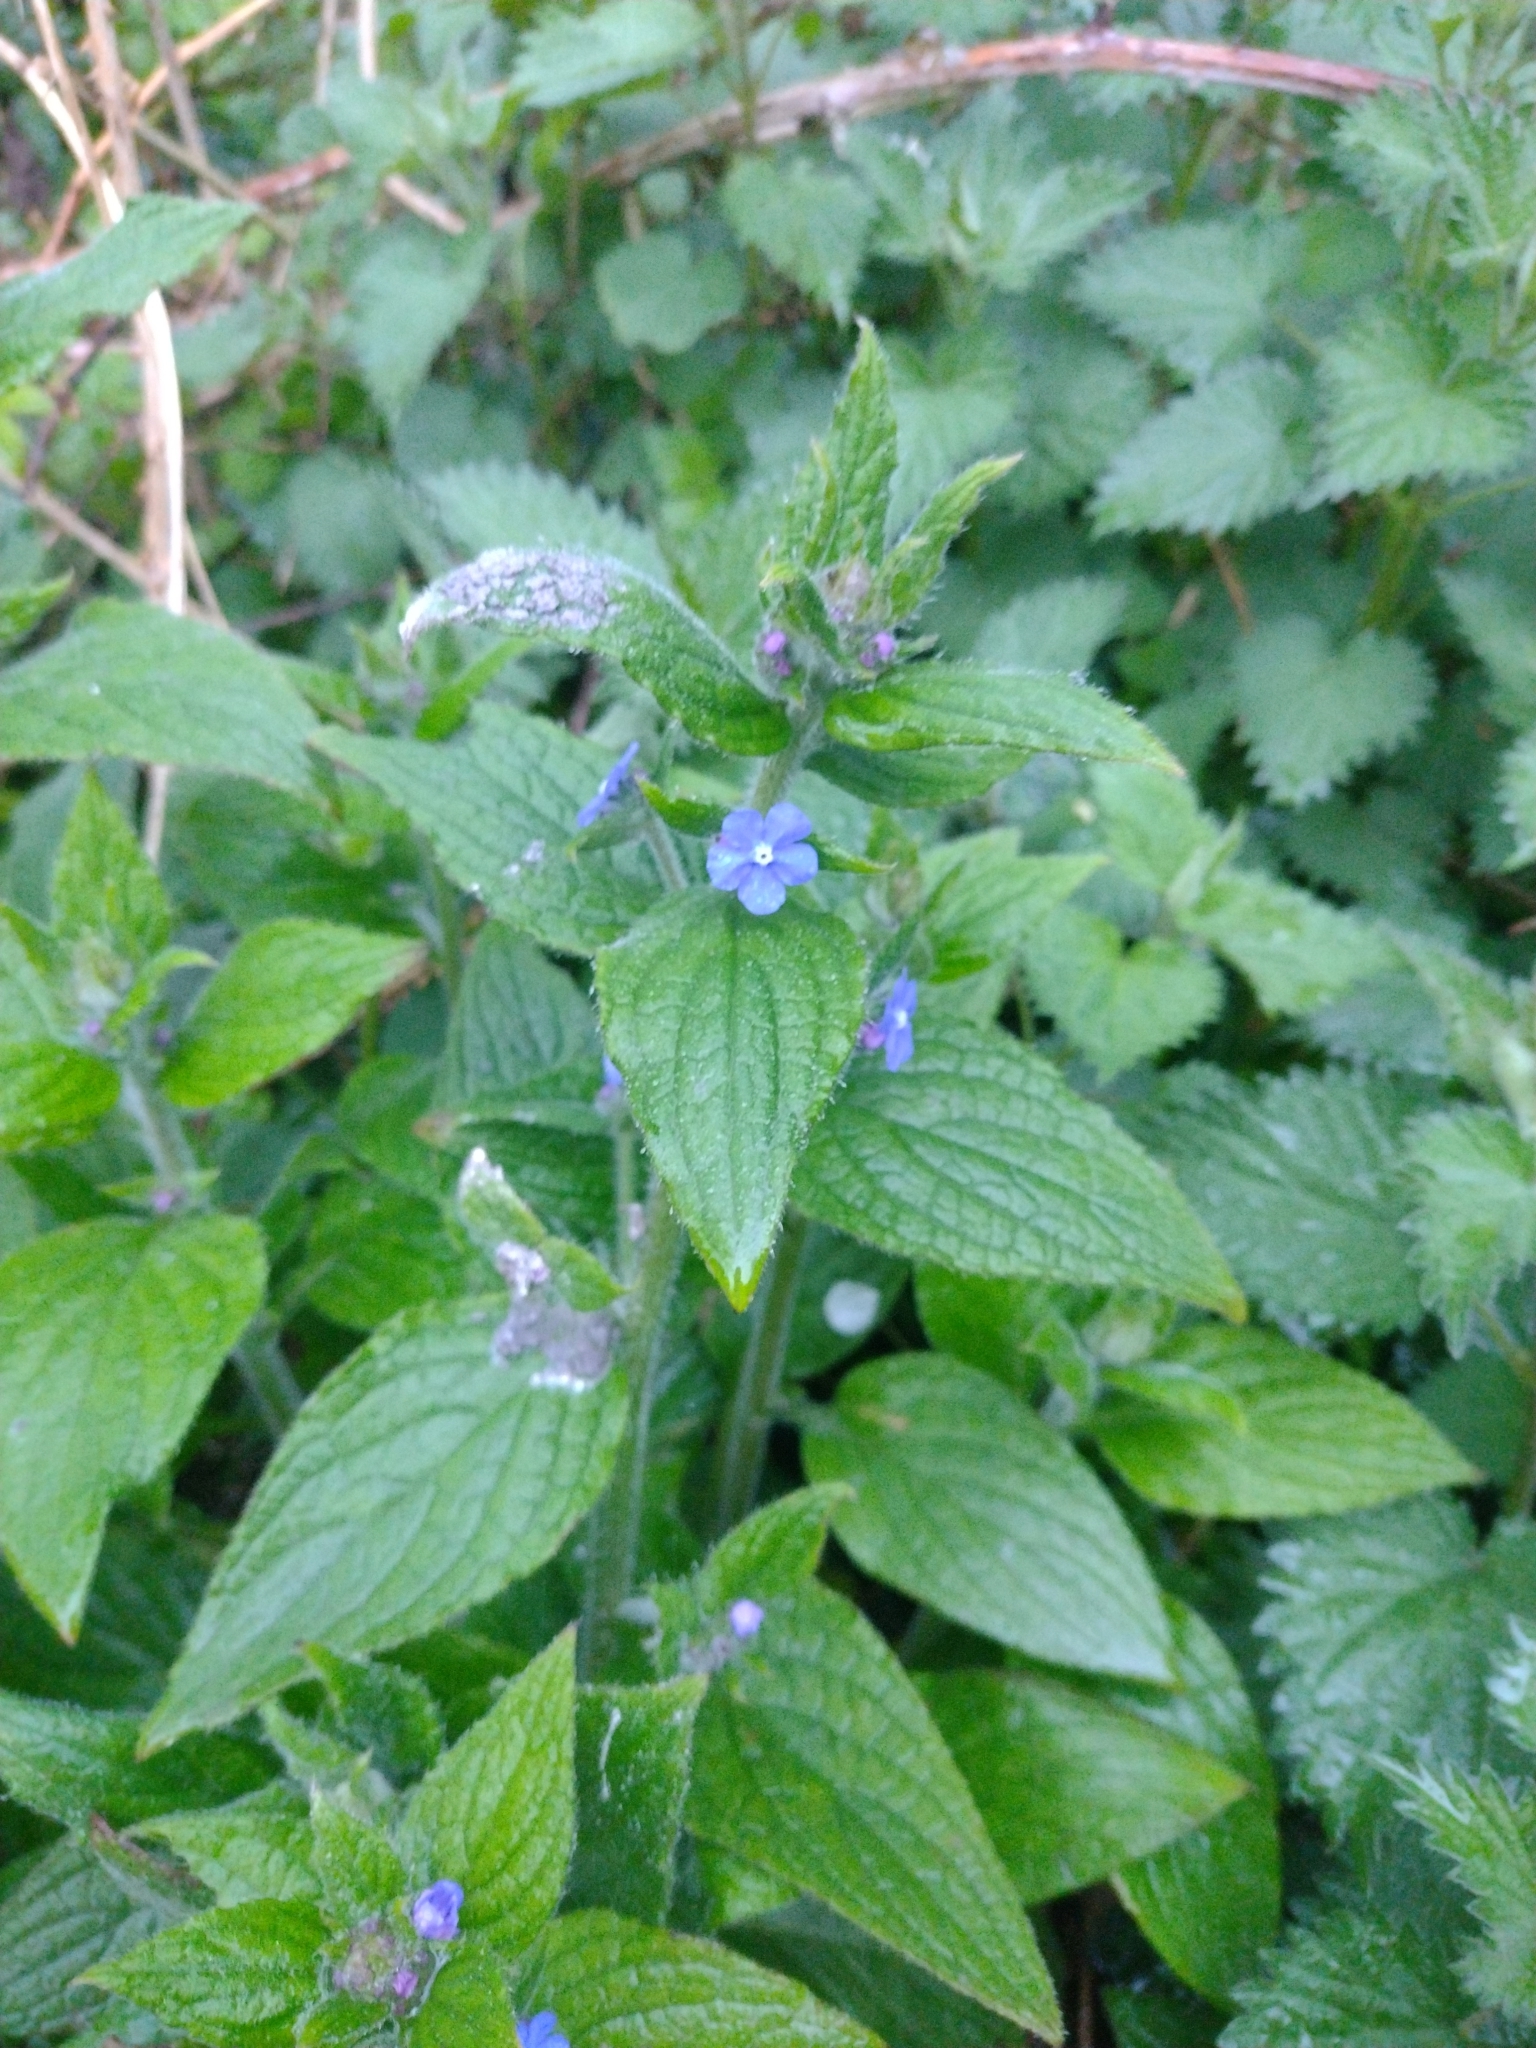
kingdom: Plantae
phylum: Tracheophyta
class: Magnoliopsida
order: Boraginales
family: Boraginaceae
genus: Pentaglottis
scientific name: Pentaglottis sempervirens
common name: Green alkanet
